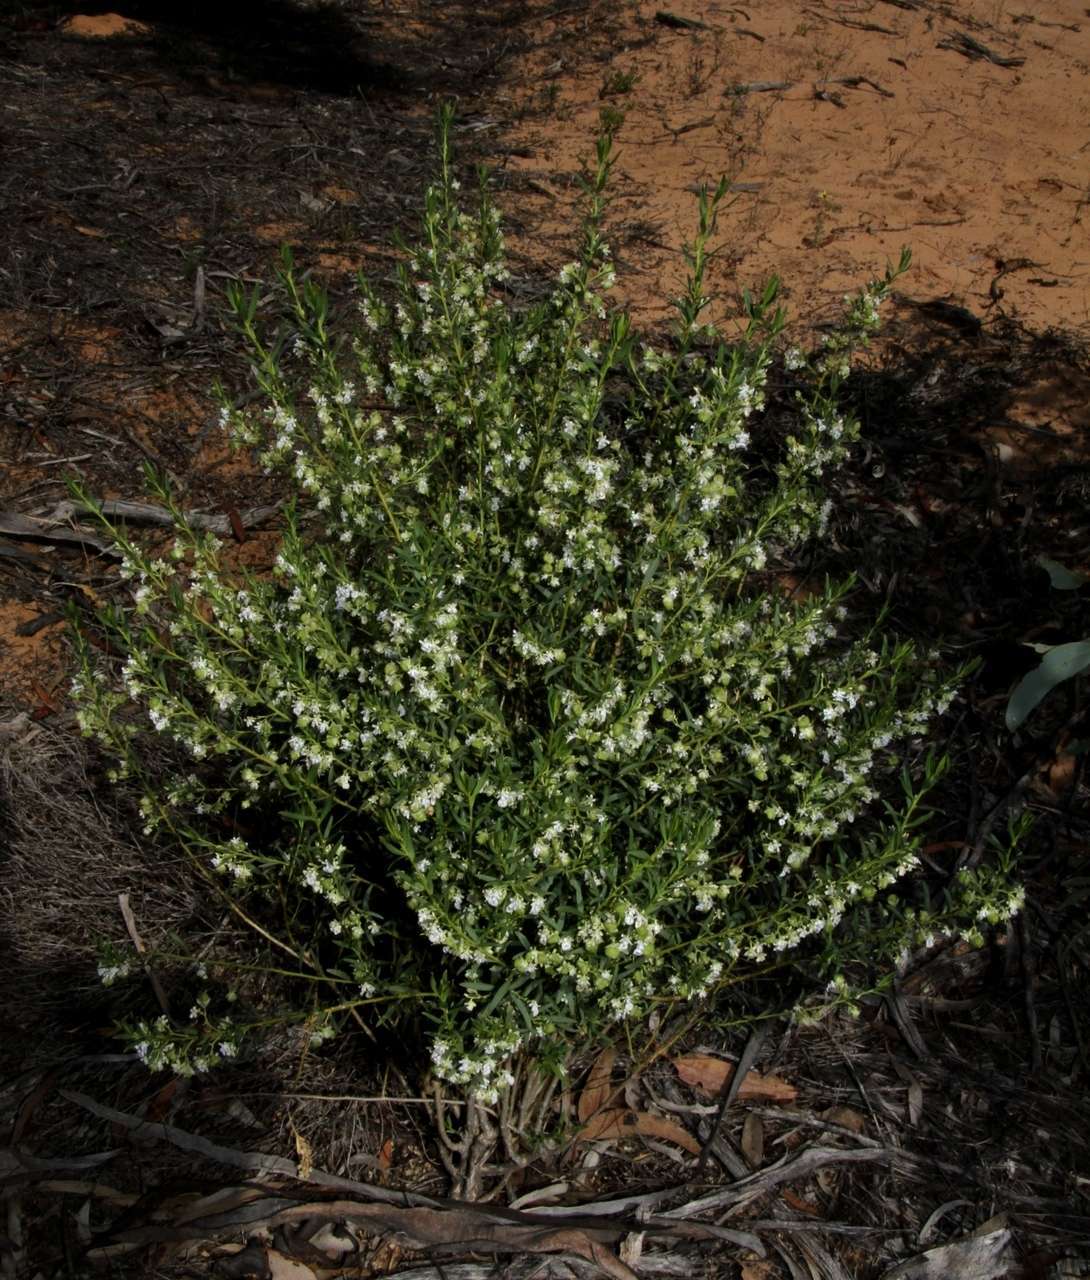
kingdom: Plantae
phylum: Tracheophyta
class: Magnoliopsida
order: Malpighiales
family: Violaceae
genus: Pigea
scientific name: Pigea floribunda
